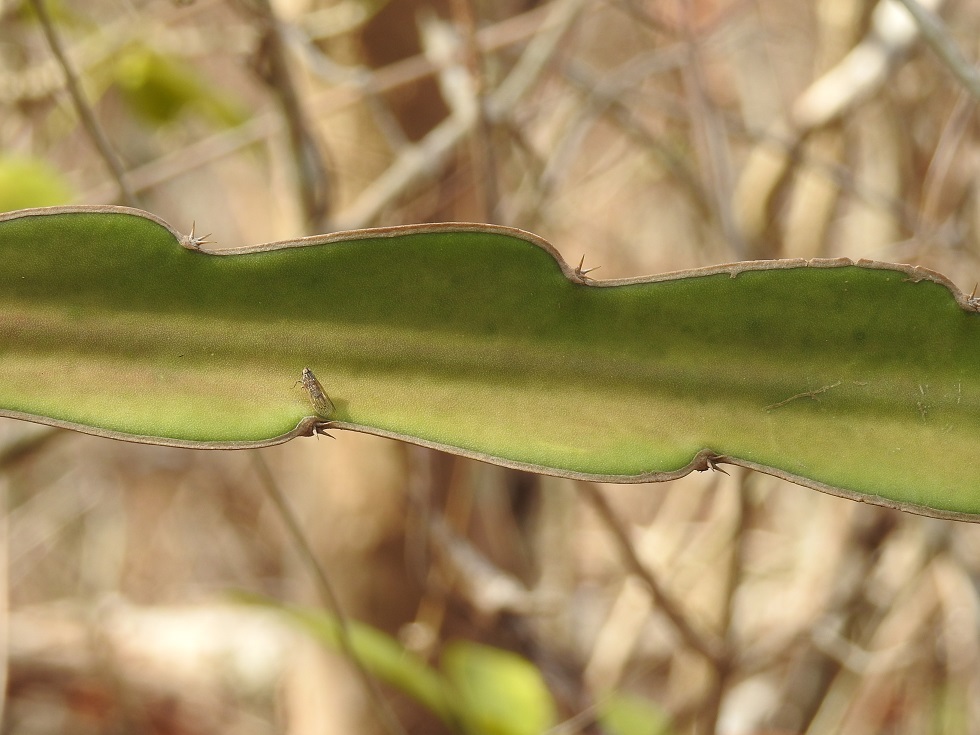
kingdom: Plantae
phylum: Tracheophyta
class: Magnoliopsida
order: Caryophyllales
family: Cactaceae
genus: Selenicereus
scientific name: Selenicereus ocamponis
